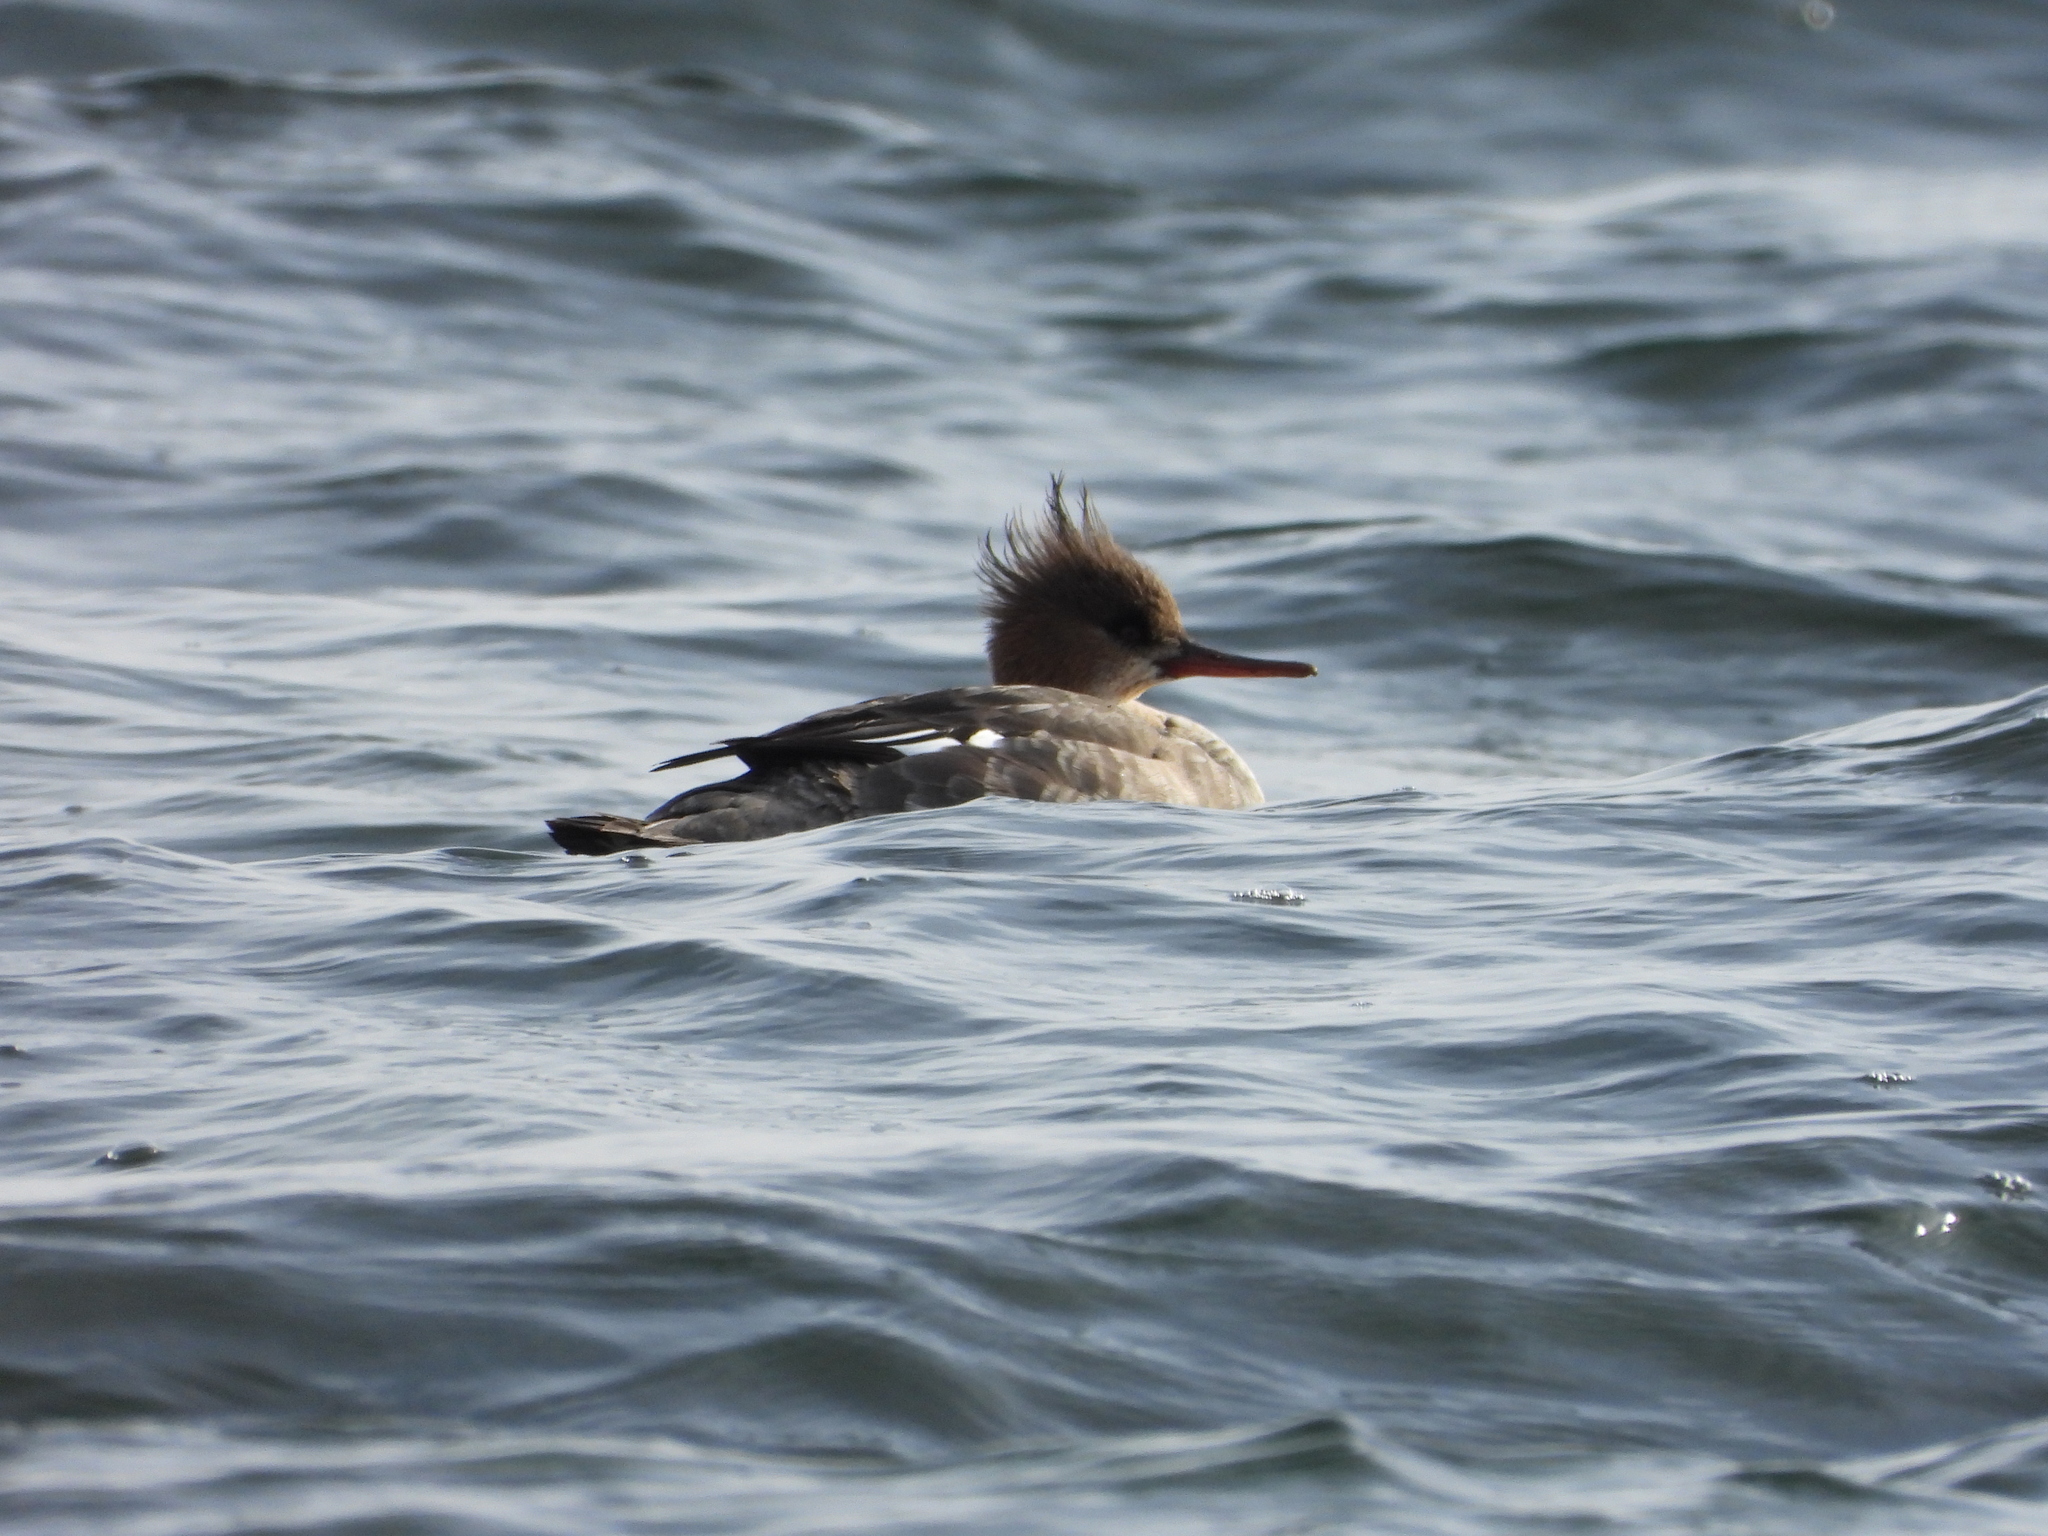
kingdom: Animalia
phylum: Chordata
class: Aves
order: Anseriformes
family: Anatidae
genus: Mergus
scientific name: Mergus serrator
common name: Red-breasted merganser
